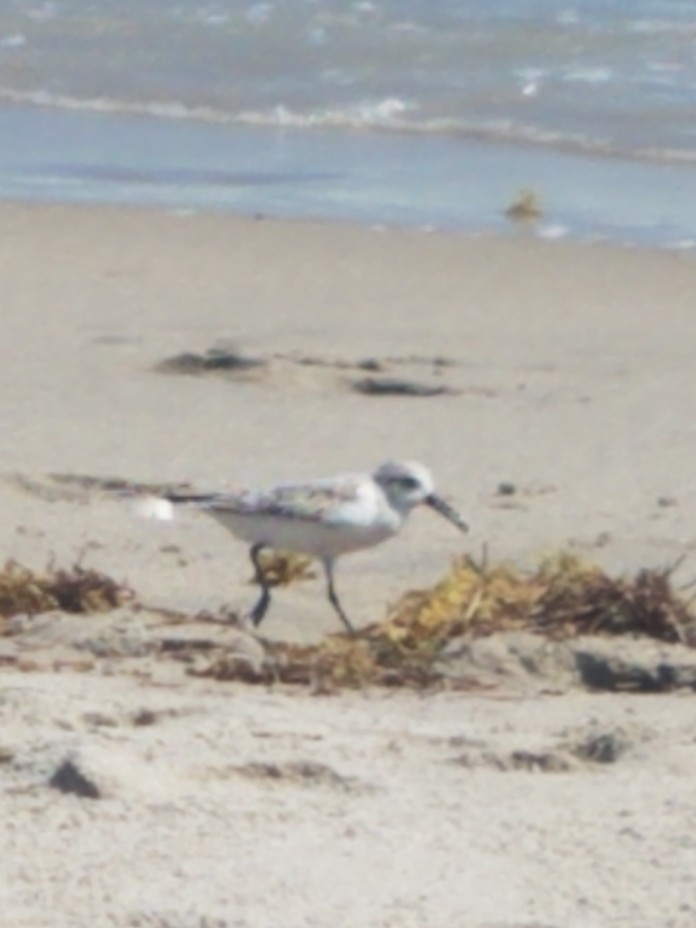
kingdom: Animalia
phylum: Chordata
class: Aves
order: Charadriiformes
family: Scolopacidae
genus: Calidris
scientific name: Calidris alba
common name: Sanderling
